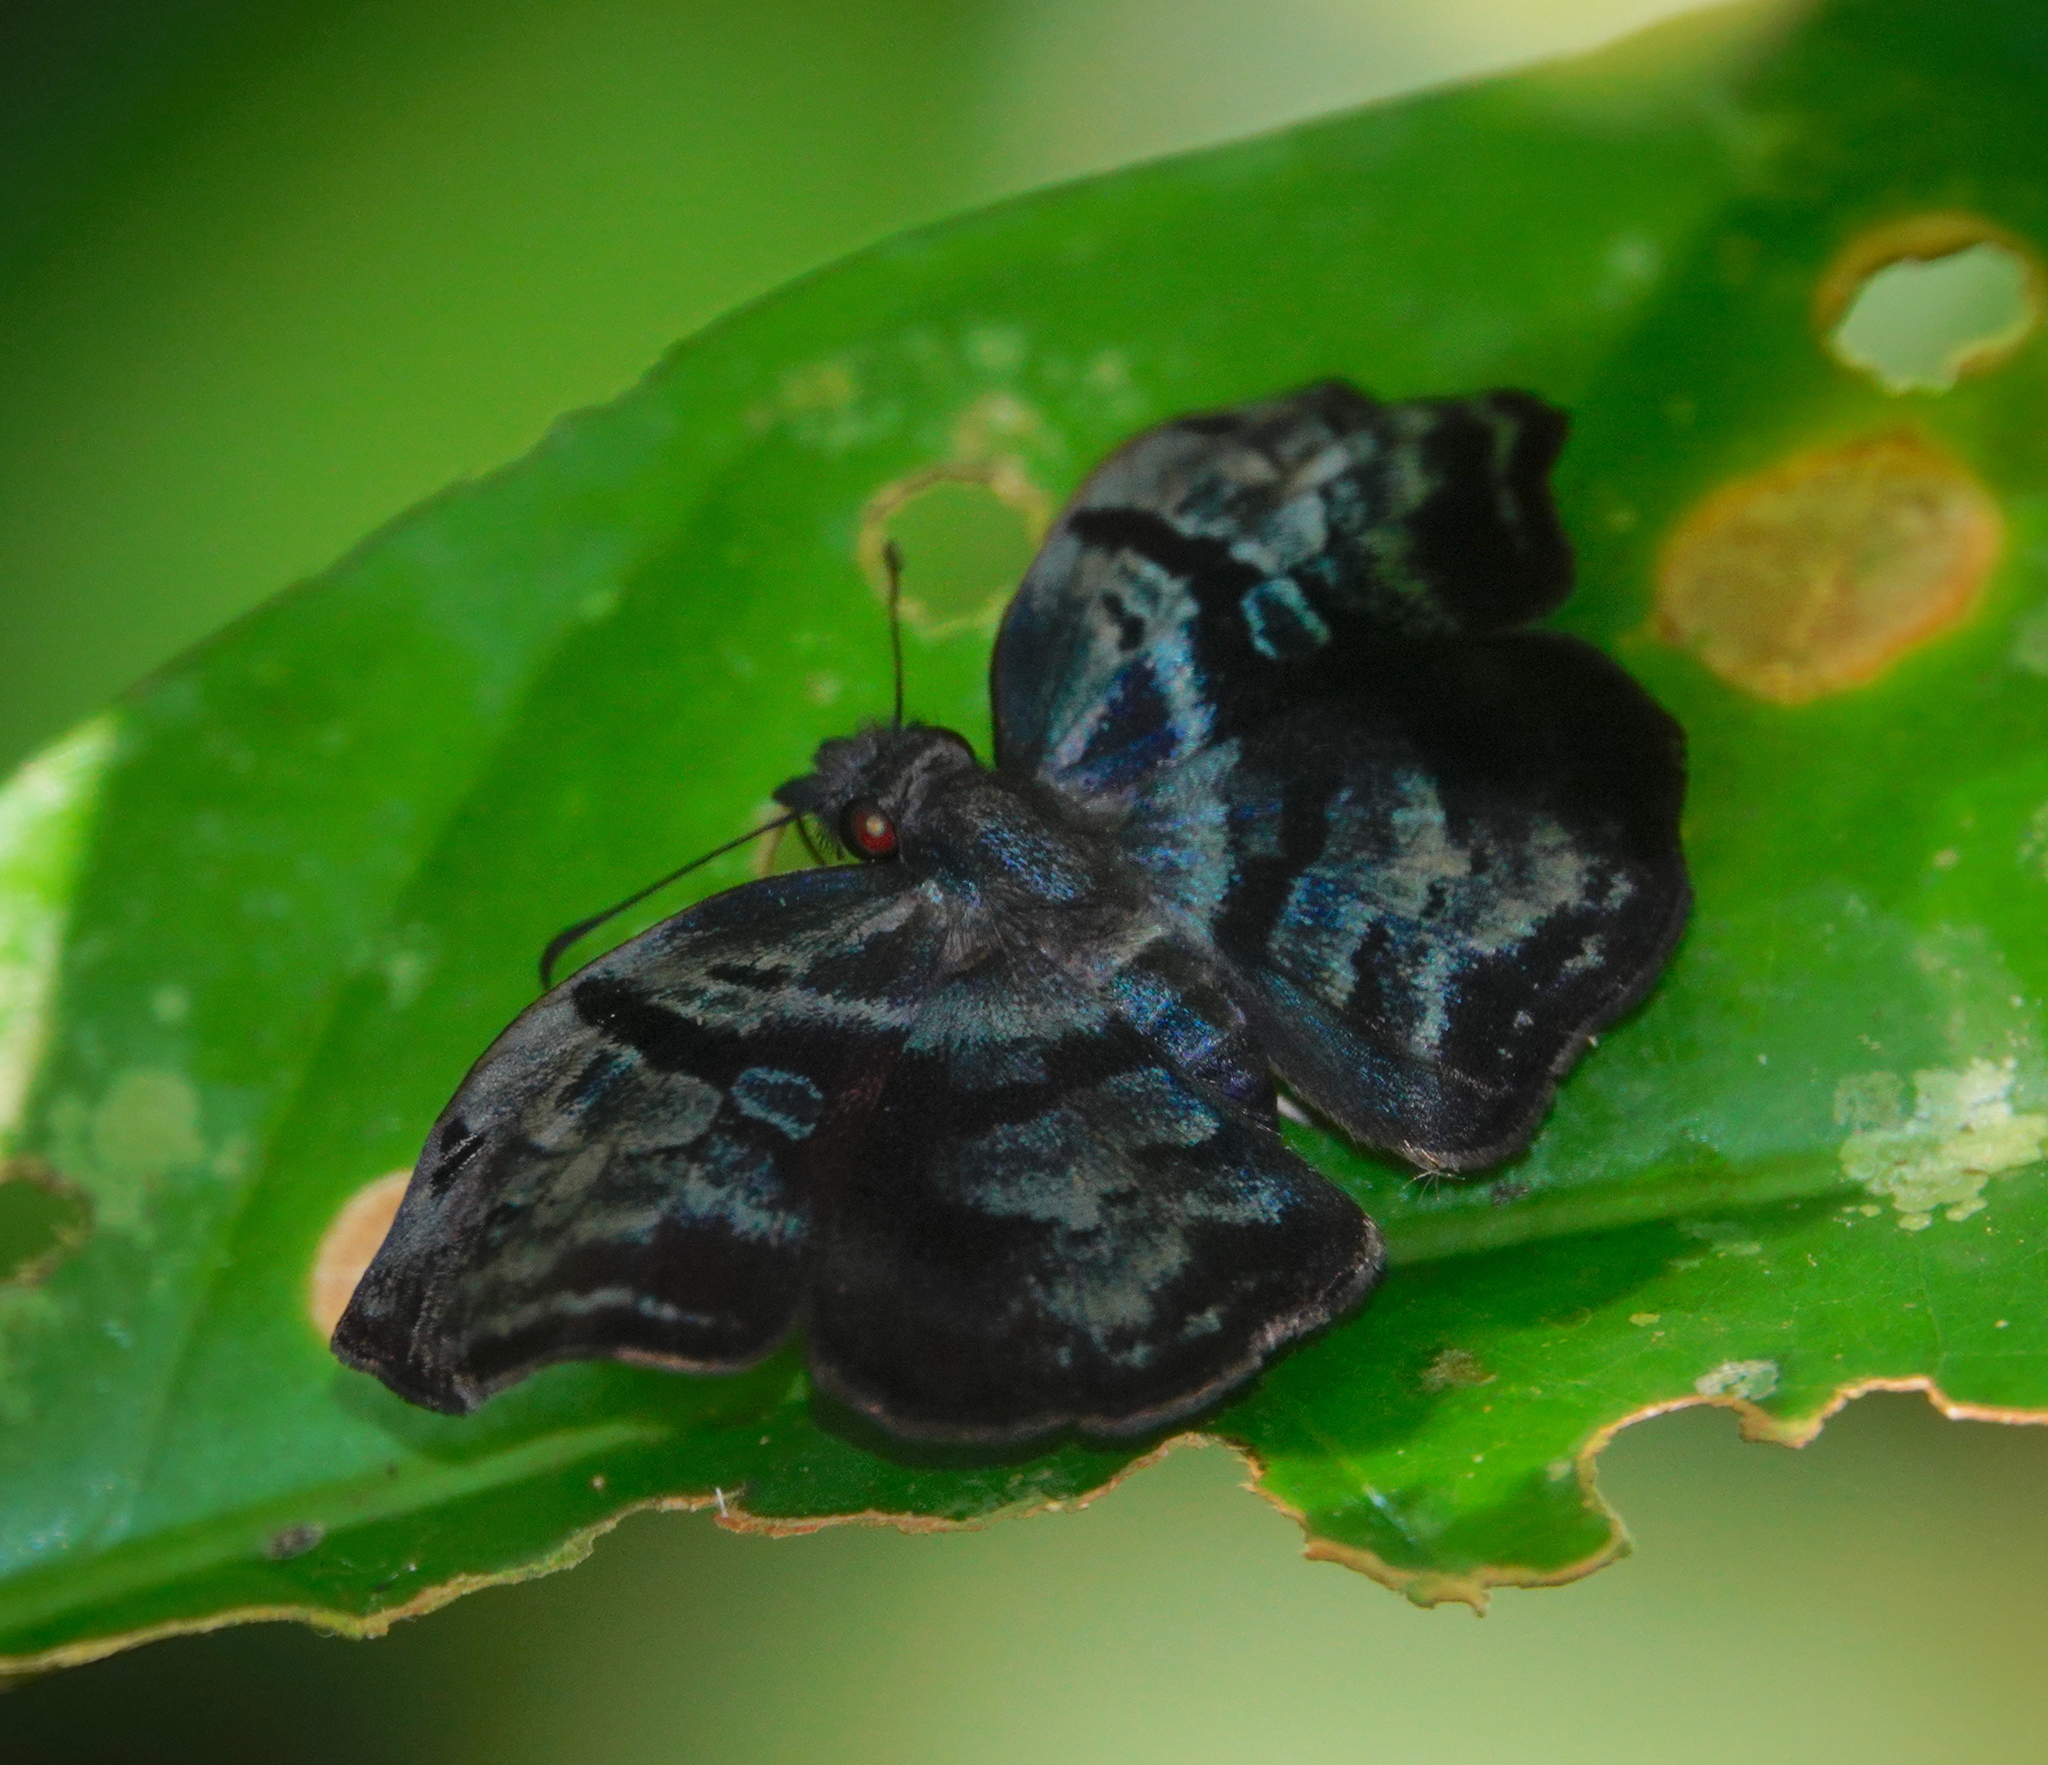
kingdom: Animalia
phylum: Arthropoda
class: Insecta
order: Lepidoptera
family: Hesperiidae
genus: Helias
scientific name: Helias phalaenoides
